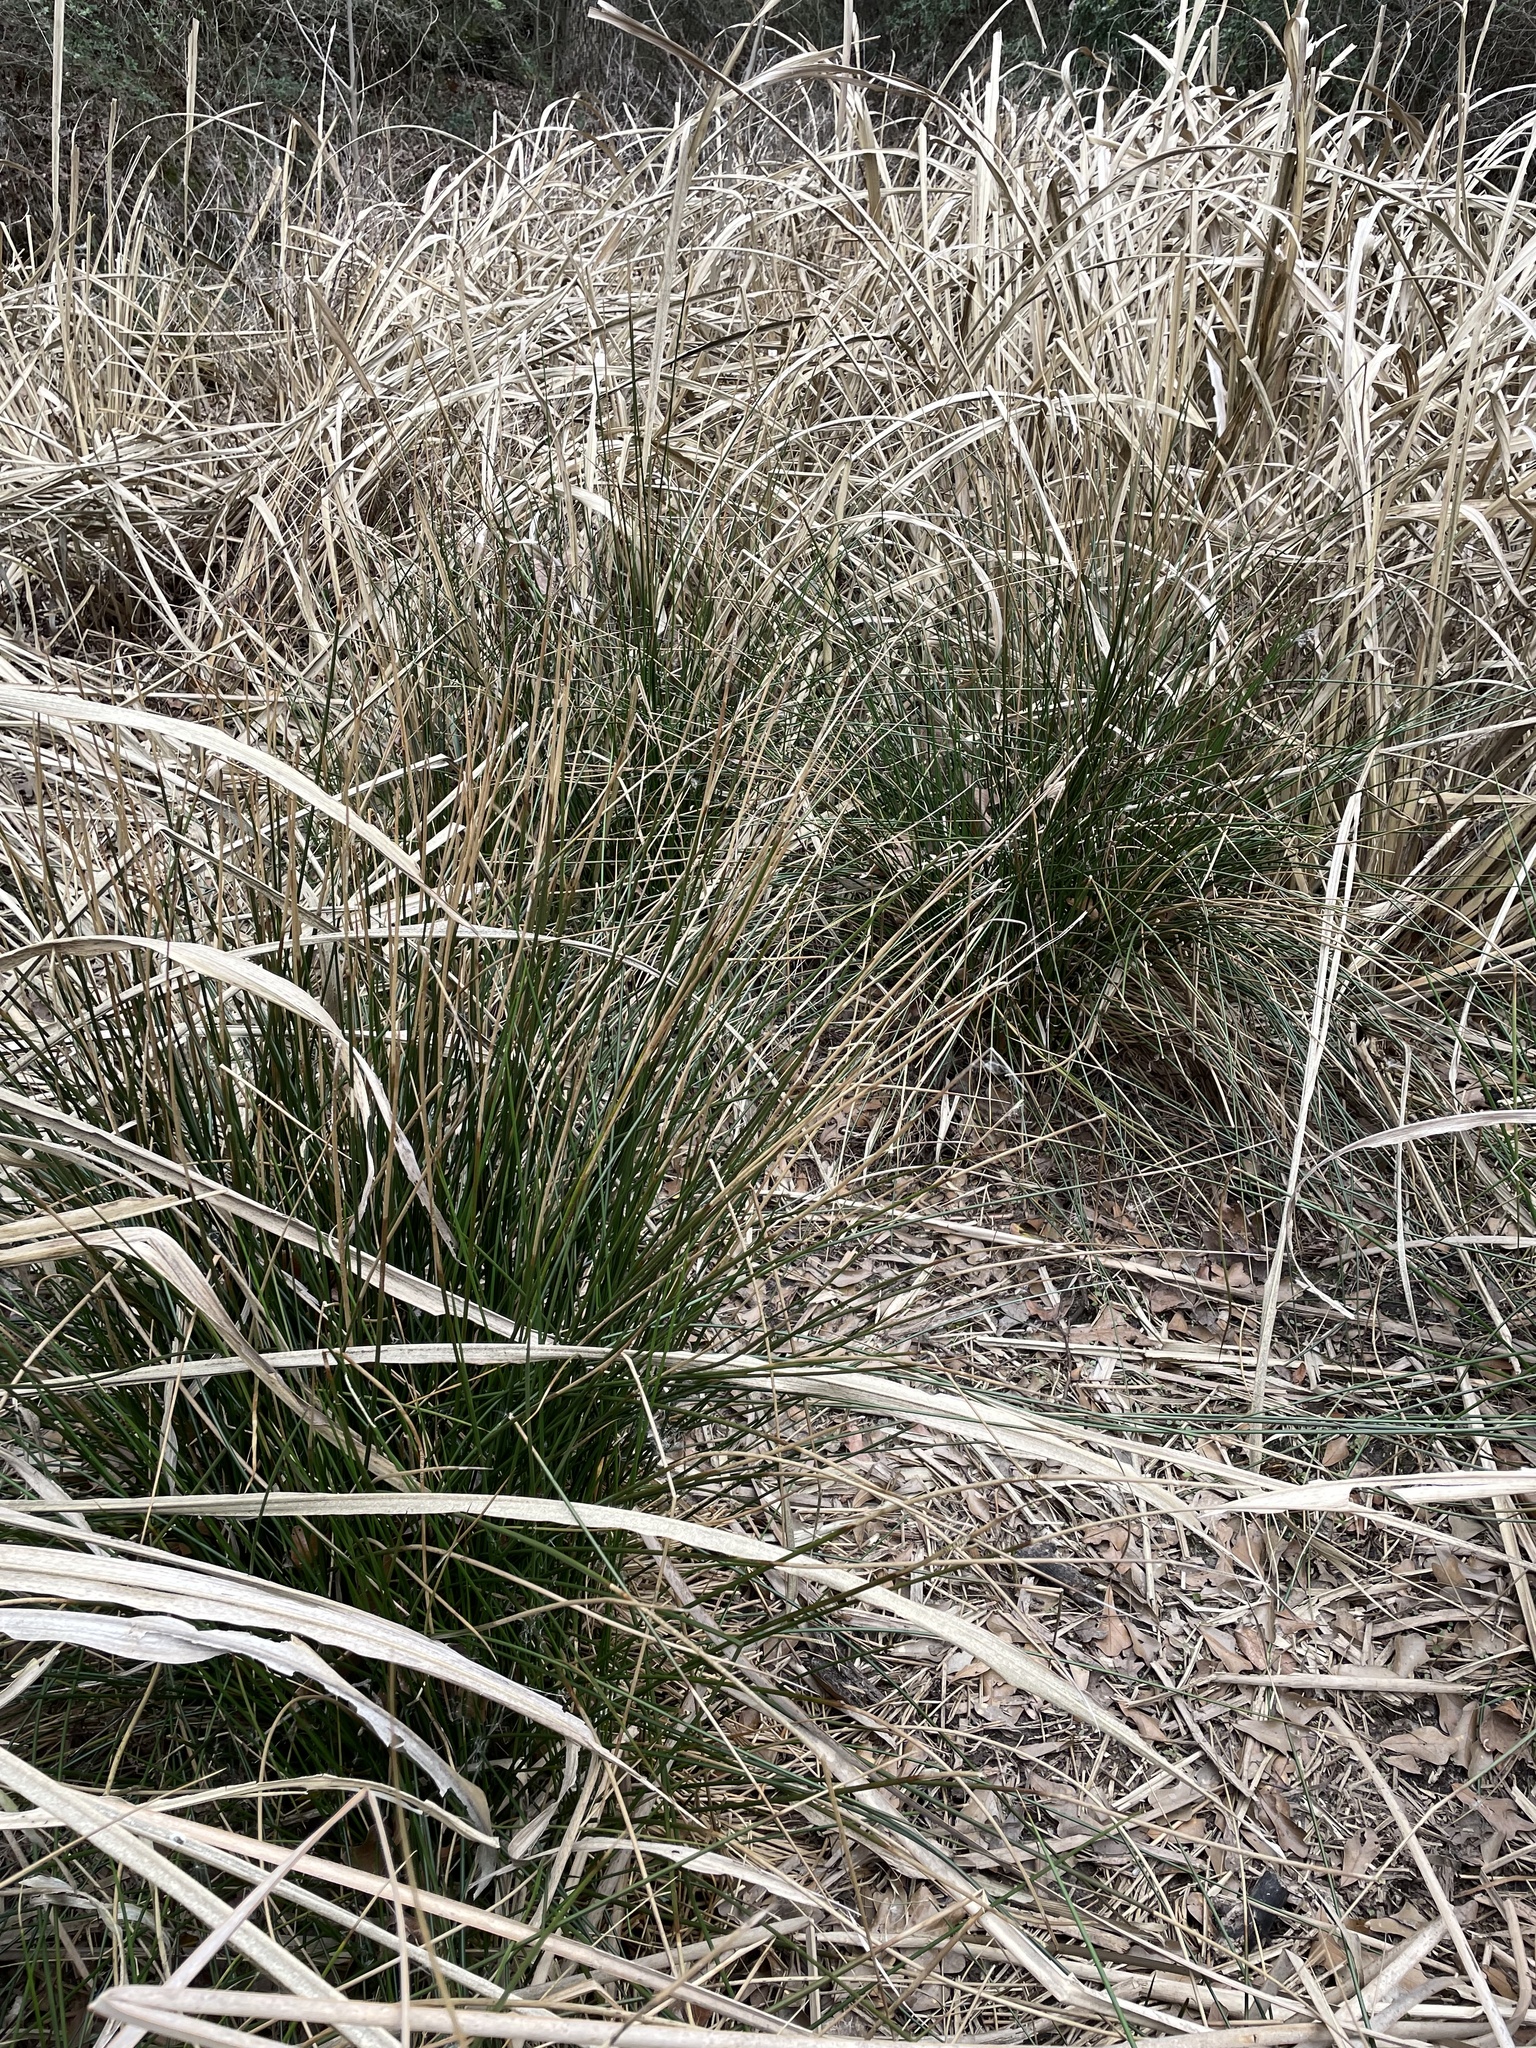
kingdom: Plantae
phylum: Tracheophyta
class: Liliopsida
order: Poales
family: Juncaceae
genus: Juncus
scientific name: Juncus effusus
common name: Soft rush
